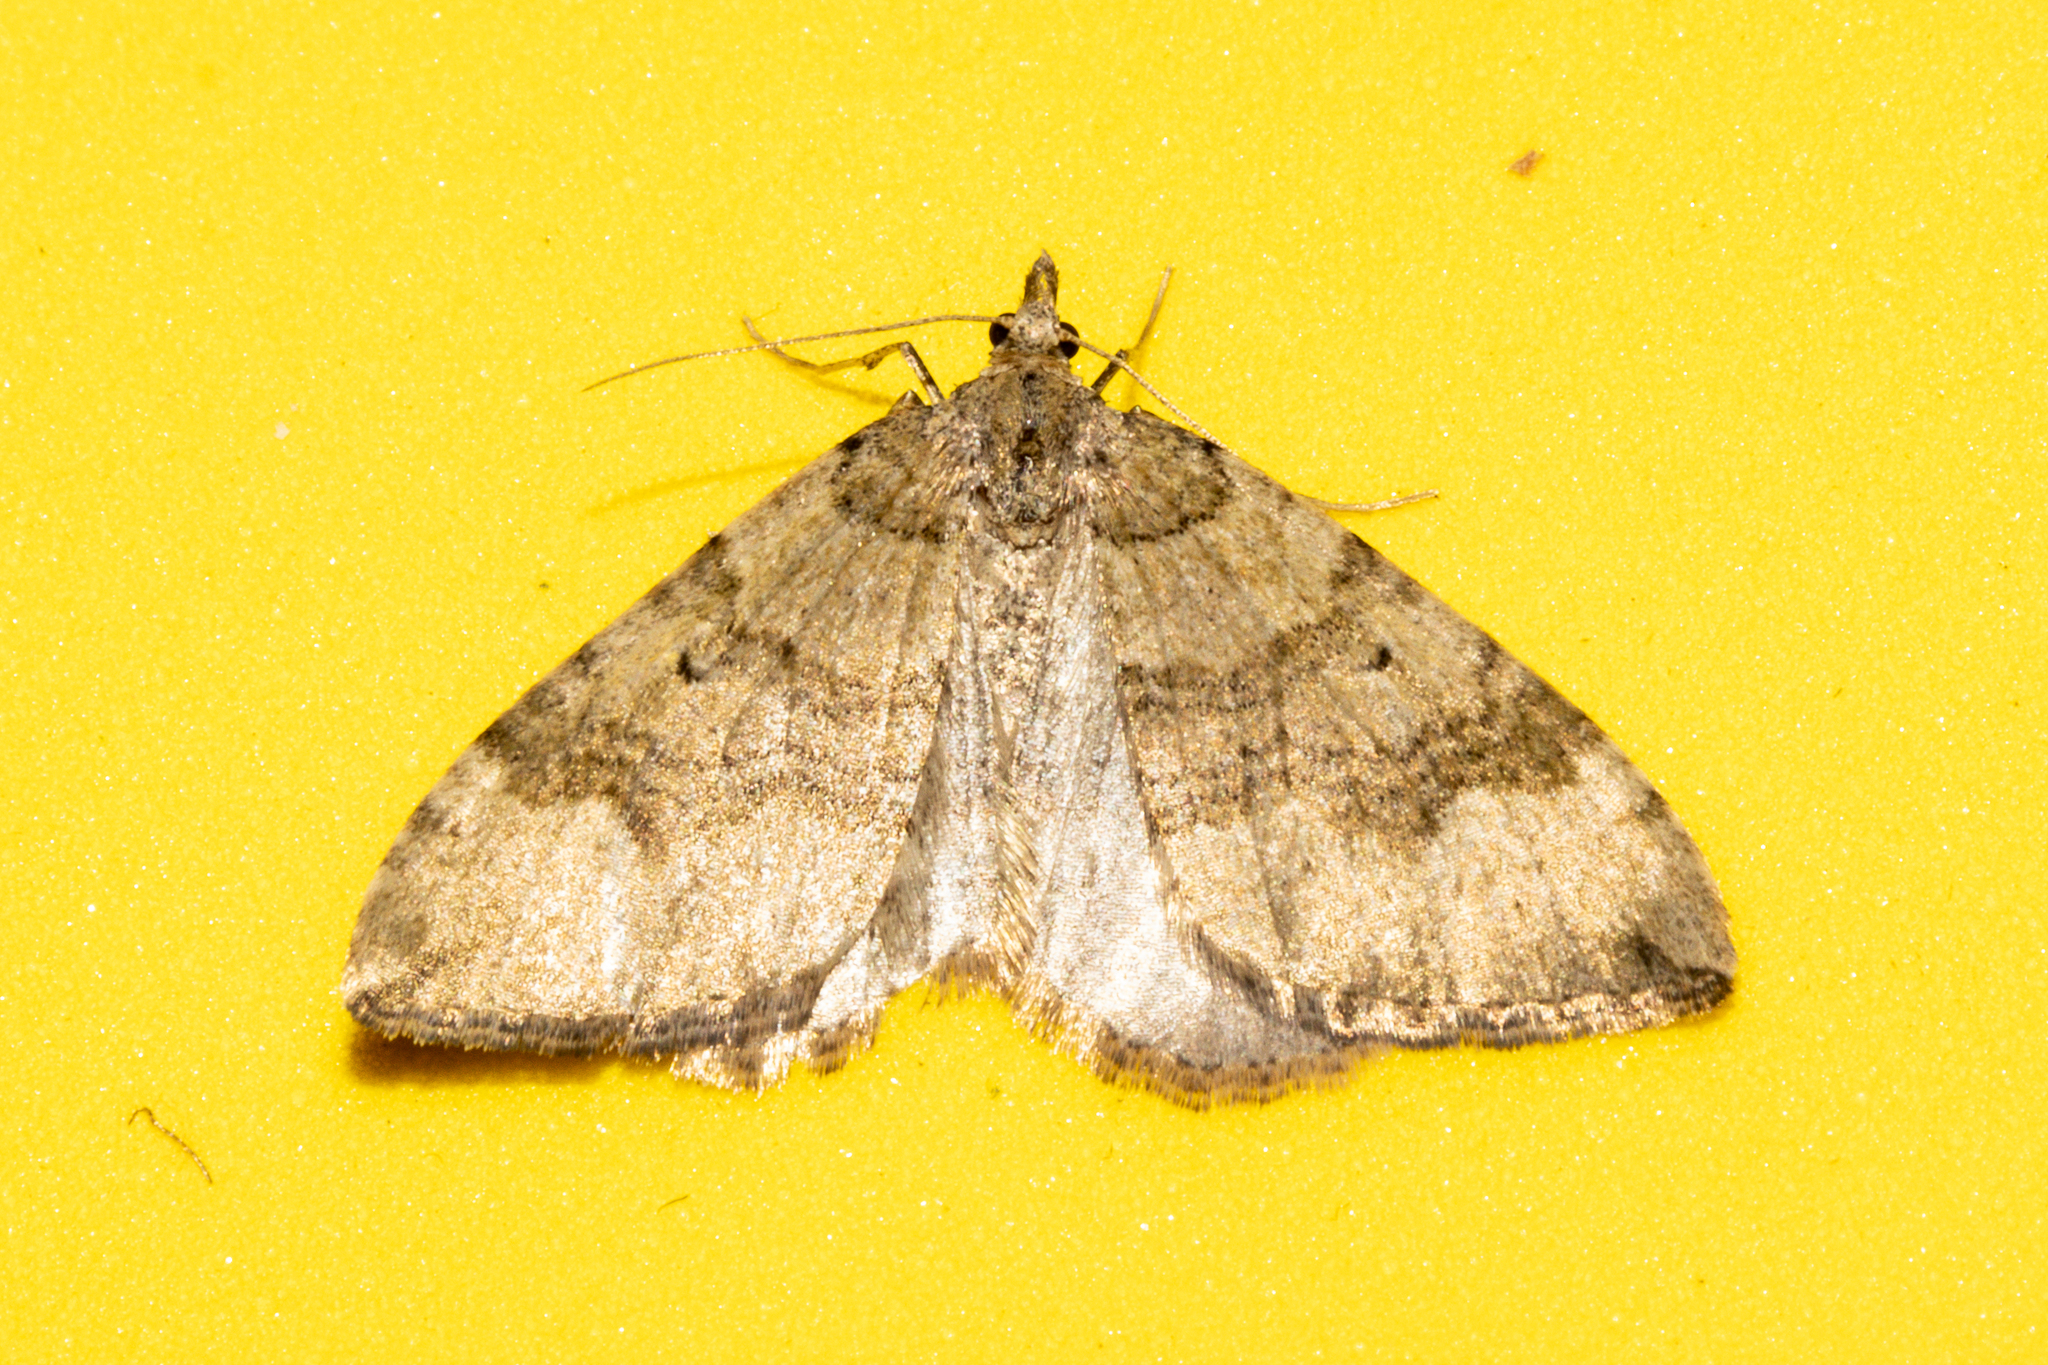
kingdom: Animalia
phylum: Arthropoda
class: Insecta
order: Lepidoptera
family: Geometridae
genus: Epyaxa
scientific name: Epyaxa rosearia
